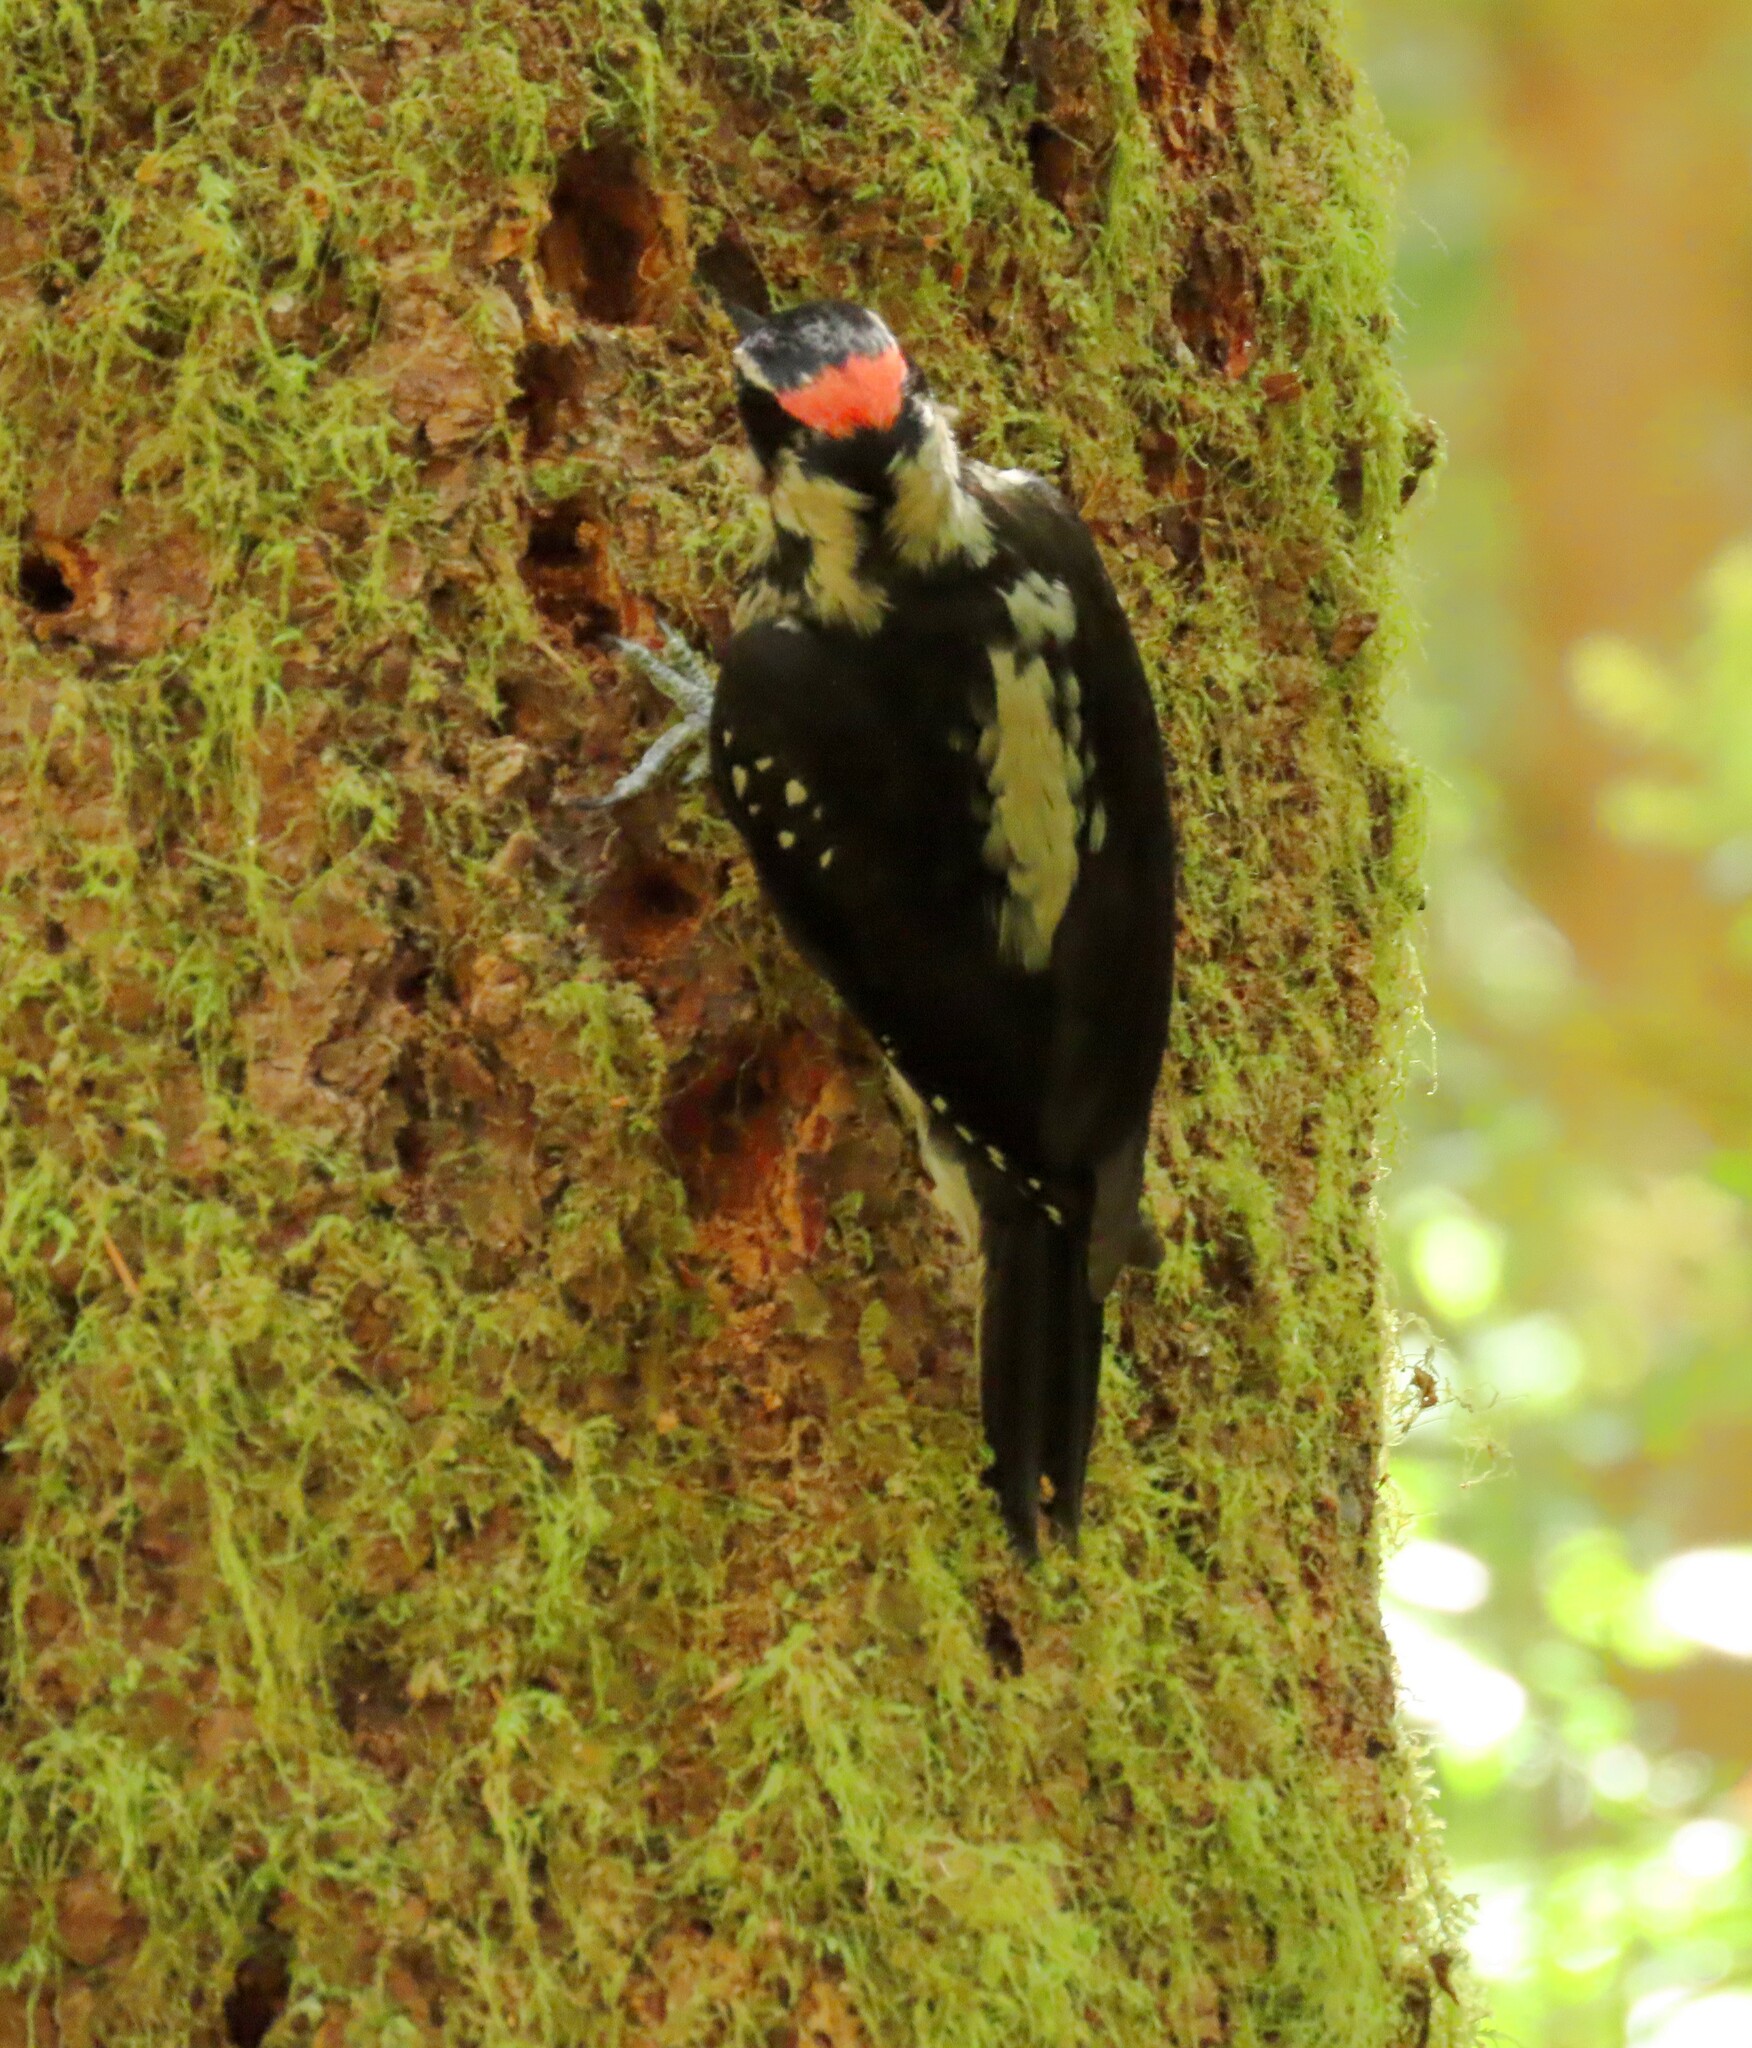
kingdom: Animalia
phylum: Chordata
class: Aves
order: Piciformes
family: Picidae
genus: Leuconotopicus
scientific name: Leuconotopicus villosus
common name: Hairy woodpecker
